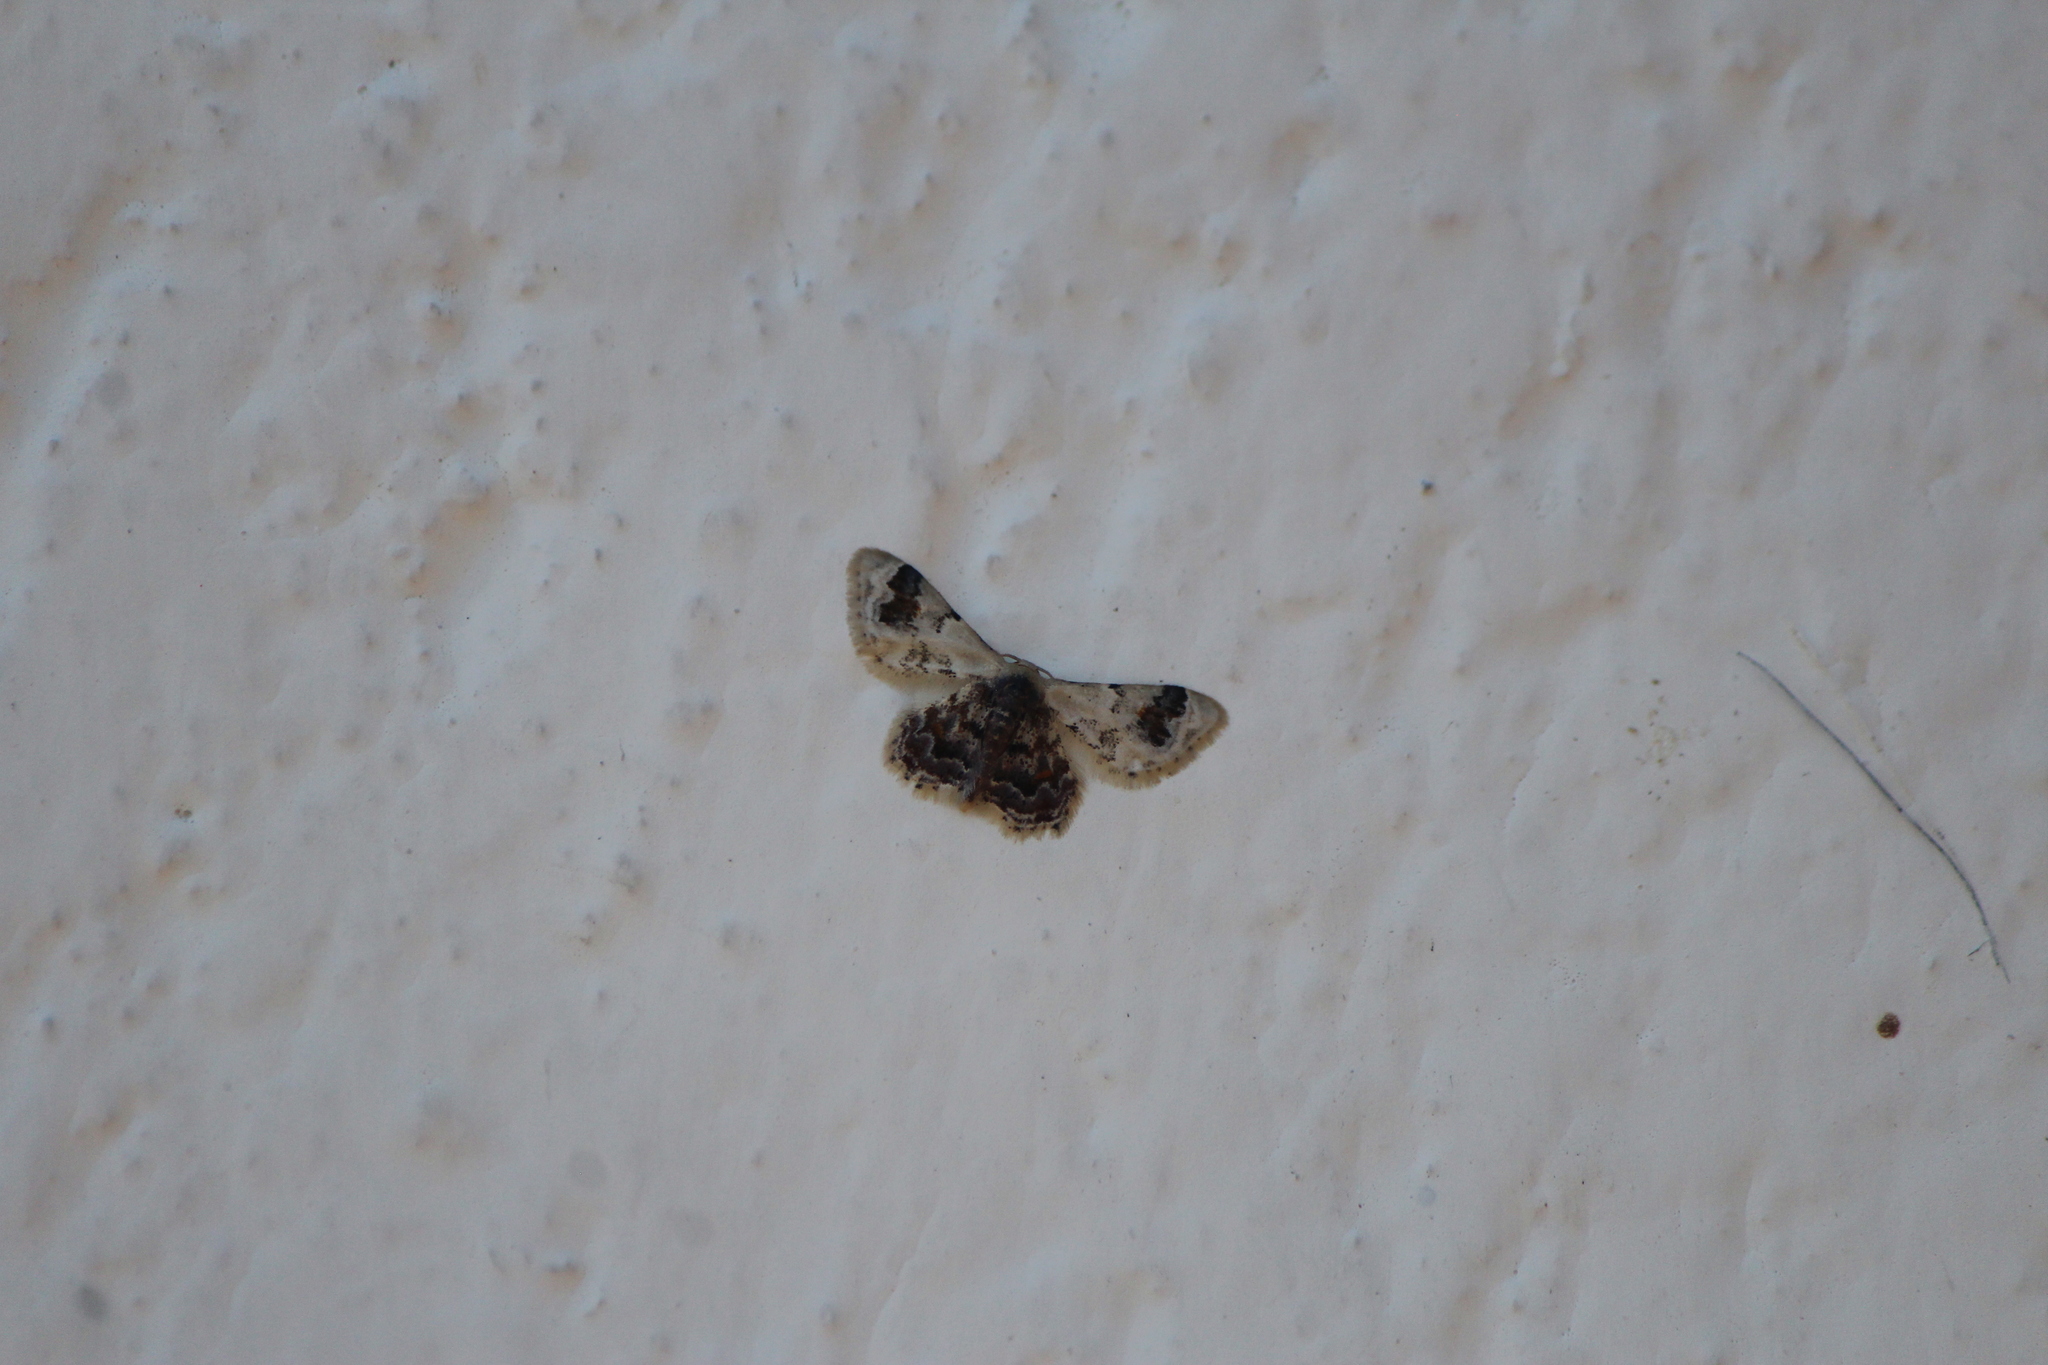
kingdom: Animalia
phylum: Arthropoda
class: Insecta
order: Lepidoptera
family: Geometridae
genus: Idaea
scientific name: Idaea asceta
